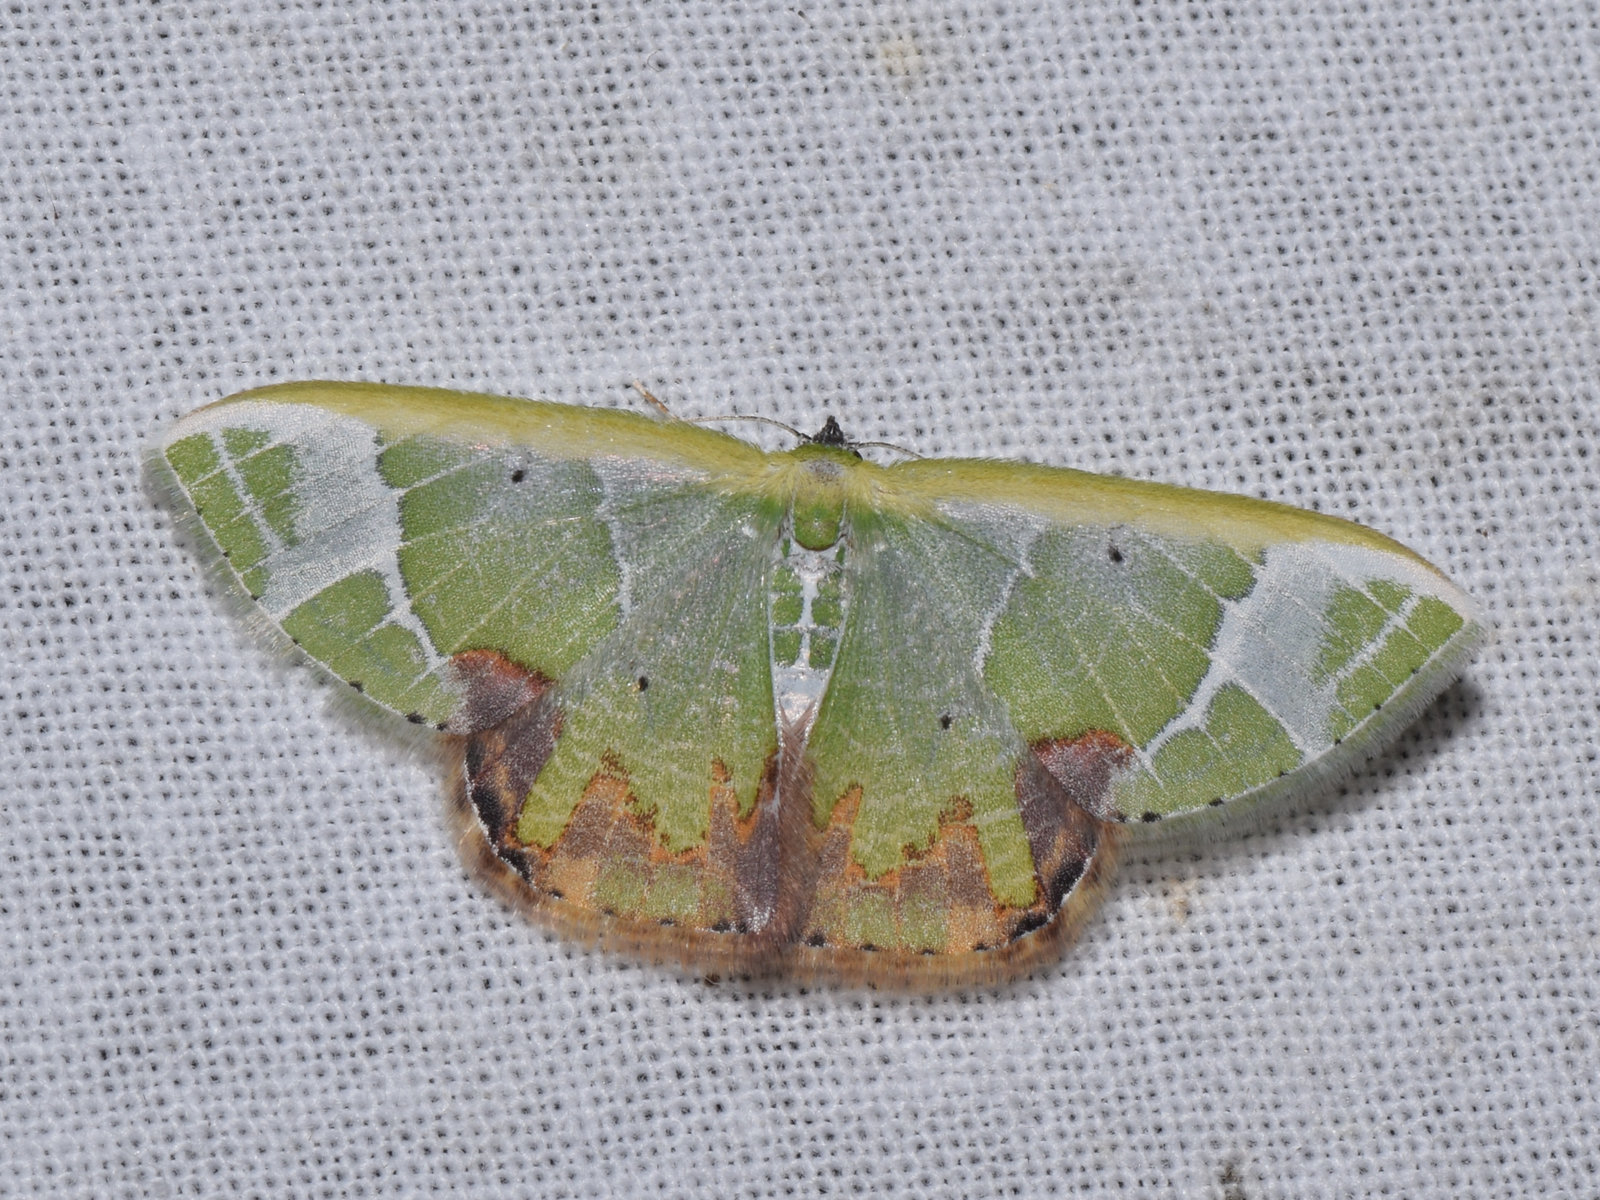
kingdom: Animalia
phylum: Arthropoda
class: Insecta
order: Lepidoptera
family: Geometridae
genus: Comibaena
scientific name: Comibaena pictipennis
